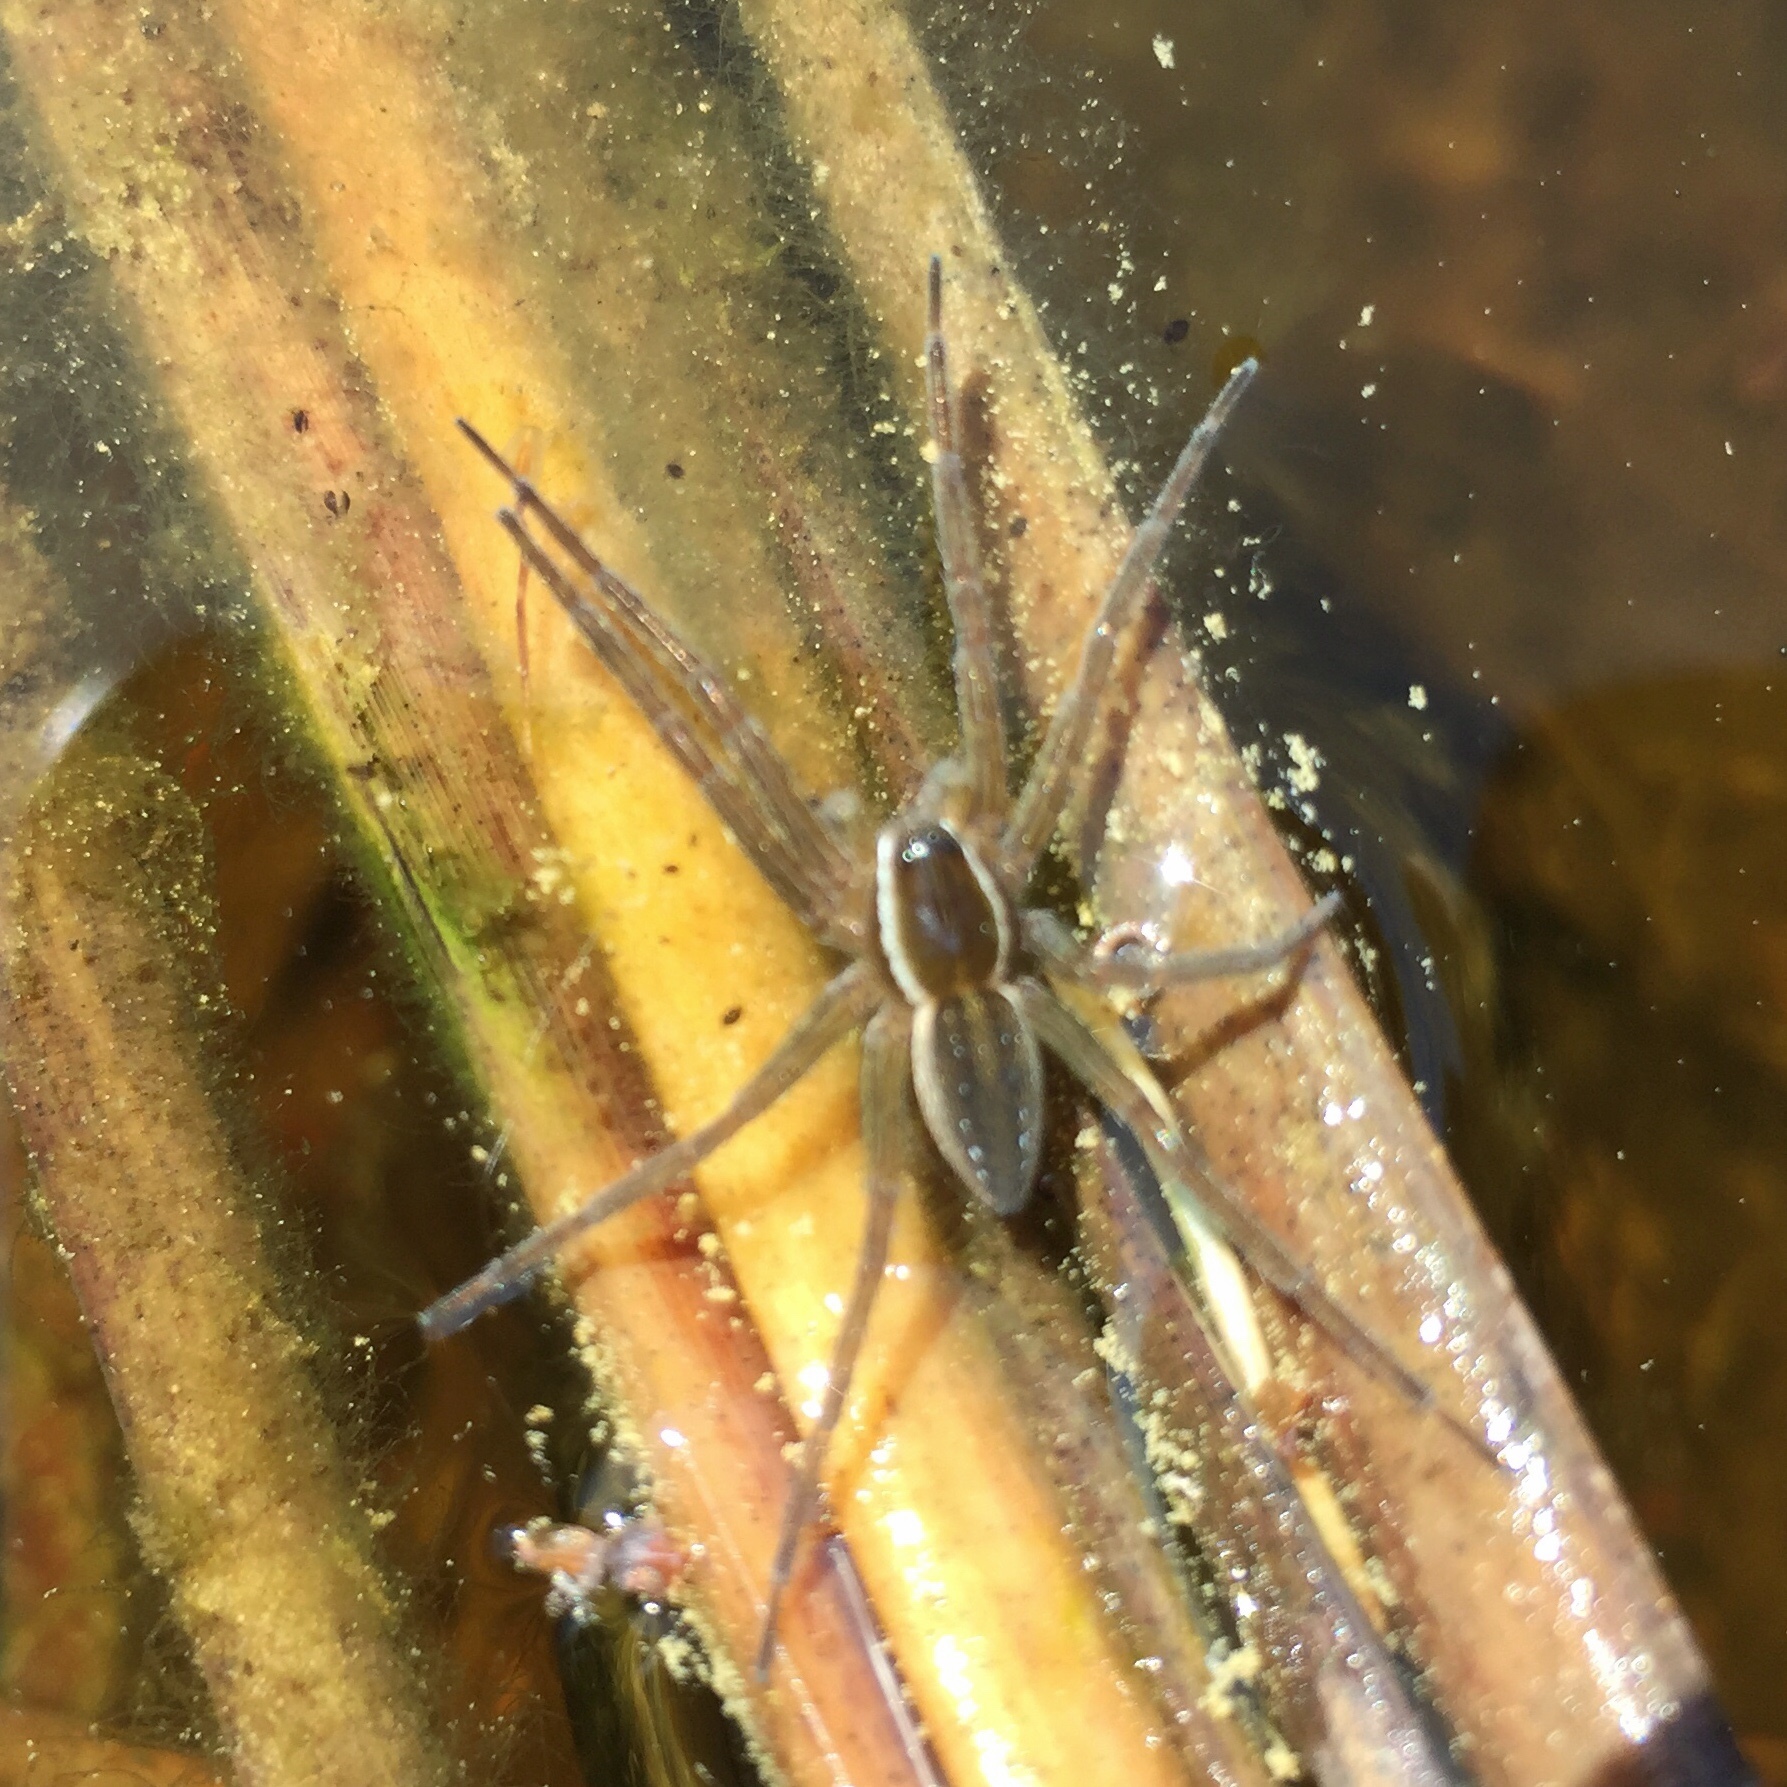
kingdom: Animalia
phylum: Arthropoda
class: Arachnida
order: Araneae
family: Pisauridae
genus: Dolomedes
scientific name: Dolomedes triton
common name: Six-spotted fishing spider
